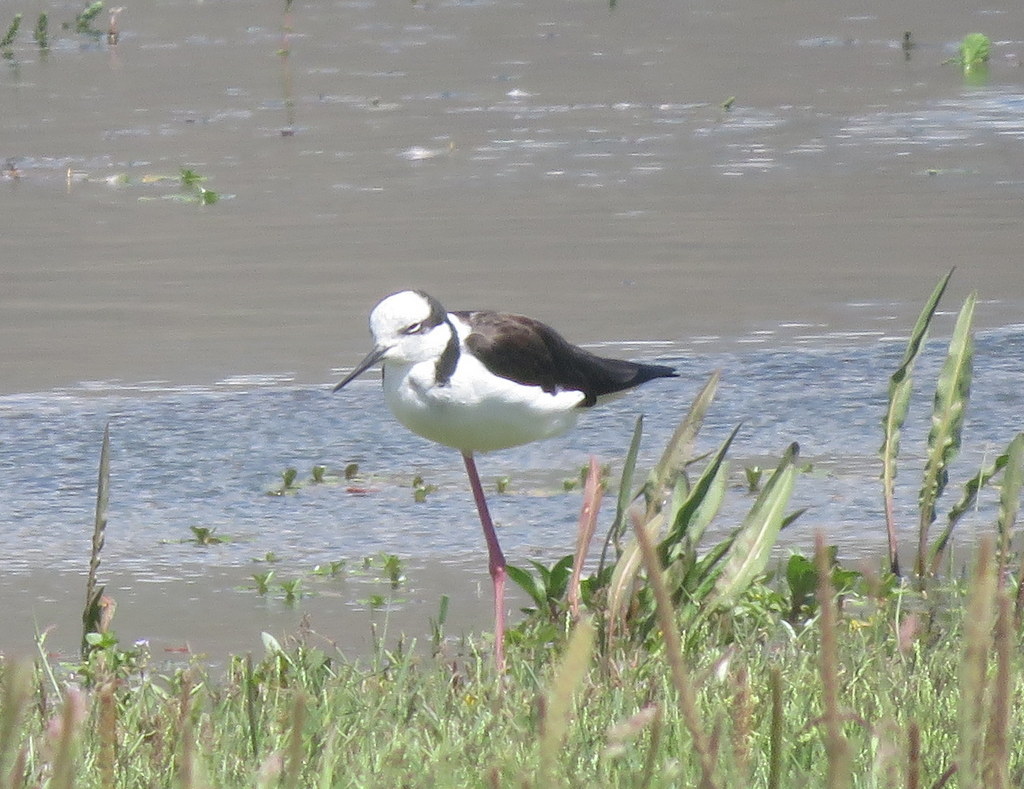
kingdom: Animalia
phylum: Chordata
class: Aves
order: Charadriiformes
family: Recurvirostridae
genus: Himantopus
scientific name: Himantopus mexicanus
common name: Black-necked stilt
